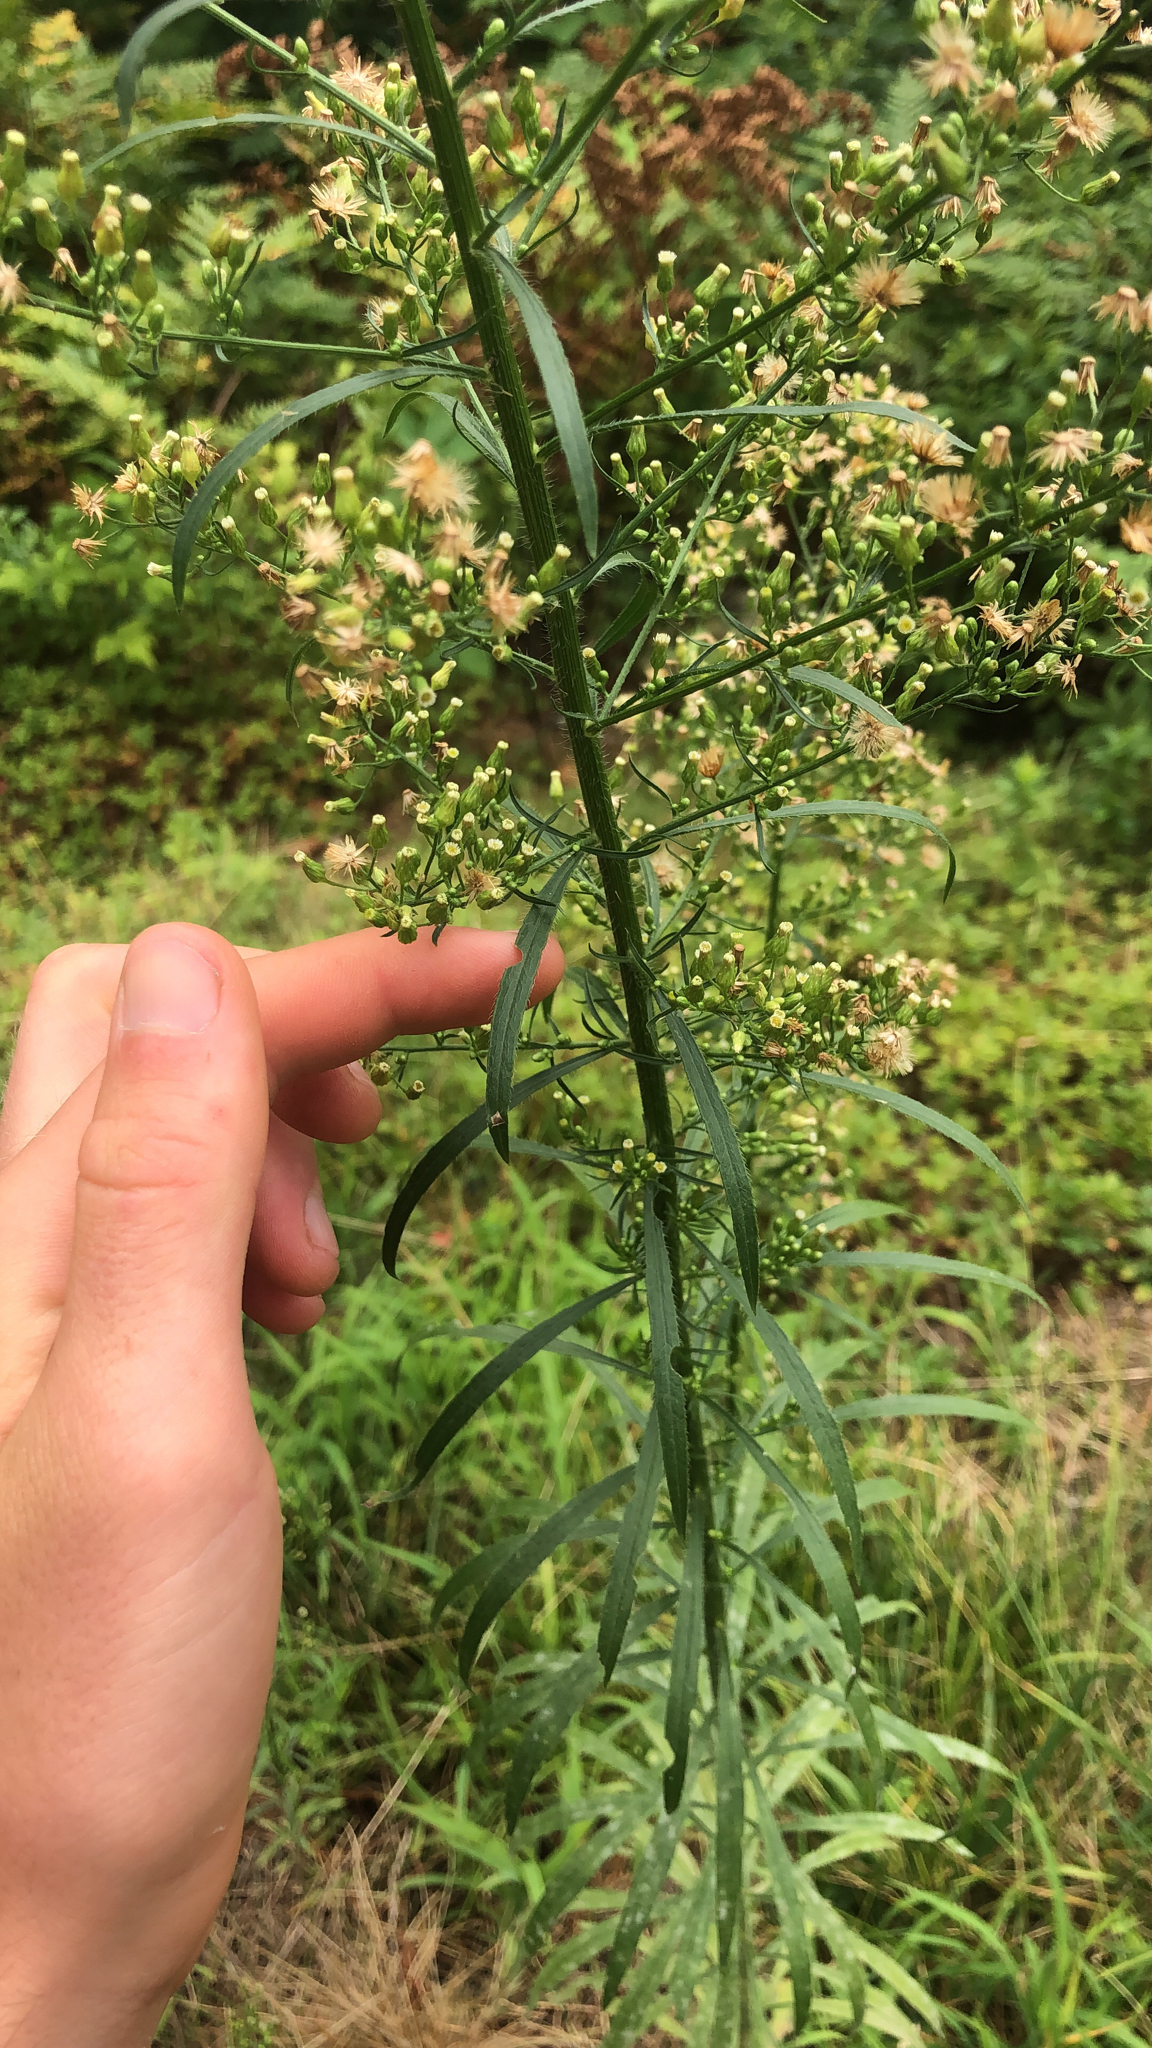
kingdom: Plantae
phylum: Tracheophyta
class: Magnoliopsida
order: Asterales
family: Asteraceae
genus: Erigeron
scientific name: Erigeron canadensis
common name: Canadian fleabane
